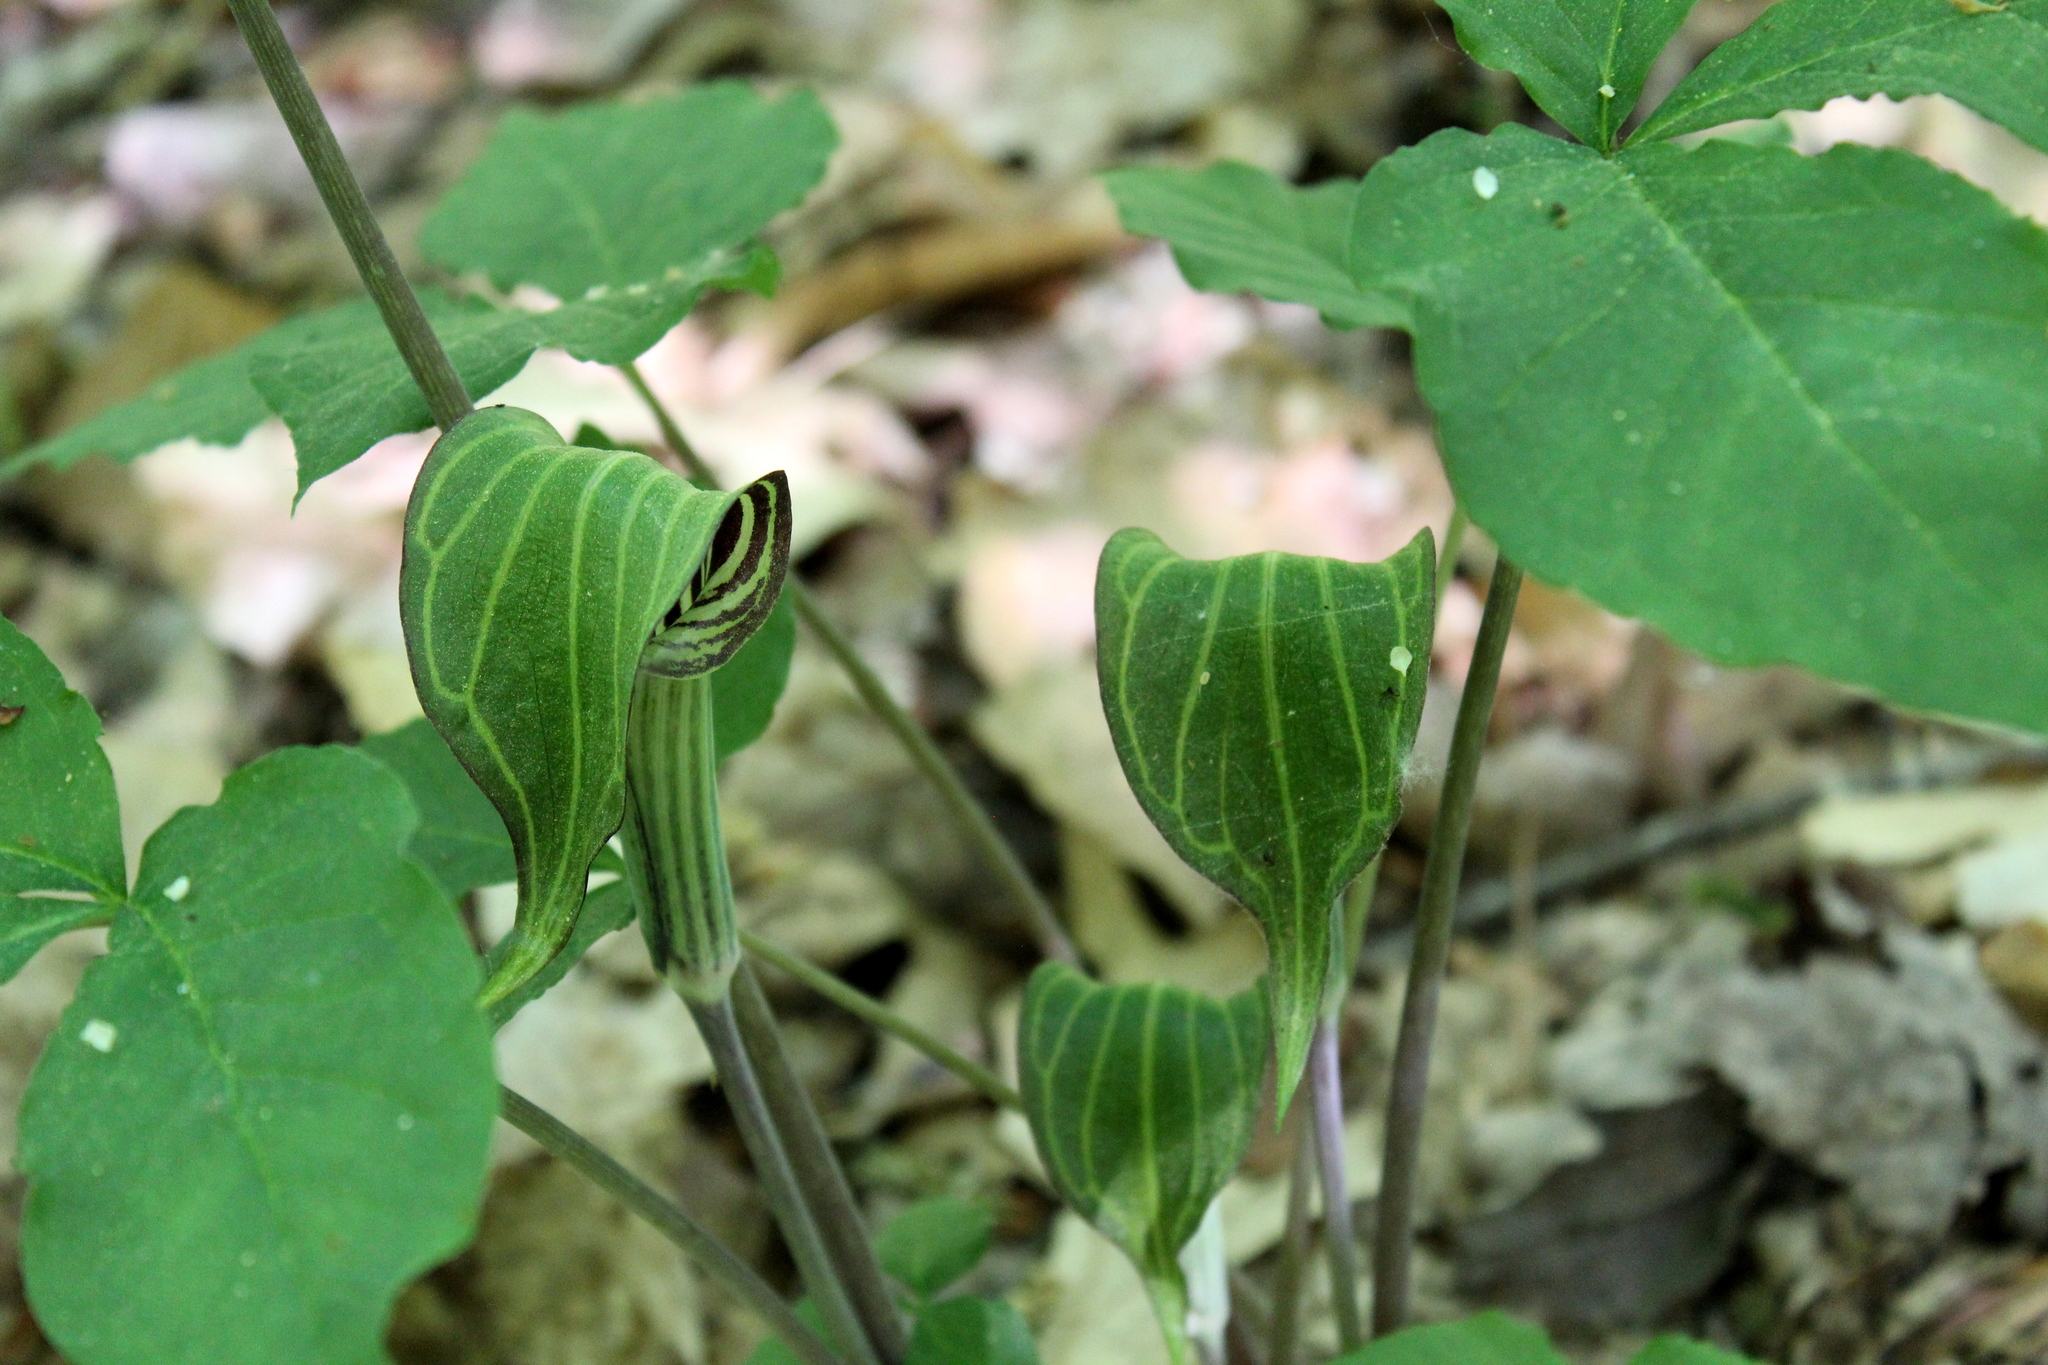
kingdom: Plantae
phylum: Tracheophyta
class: Liliopsida
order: Alismatales
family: Araceae
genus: Arisaema
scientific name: Arisaema triphyllum
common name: Jack-in-the-pulpit
